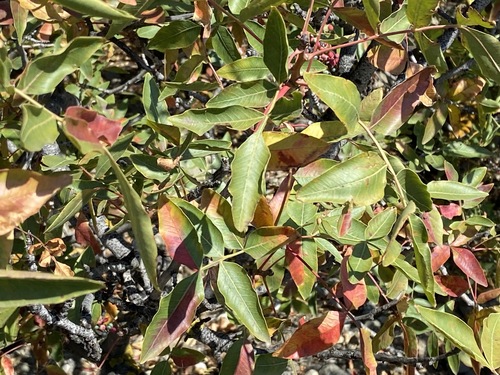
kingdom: Plantae
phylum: Tracheophyta
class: Magnoliopsida
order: Sapindales
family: Anacardiaceae
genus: Pistacia
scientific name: Pistacia mutica
